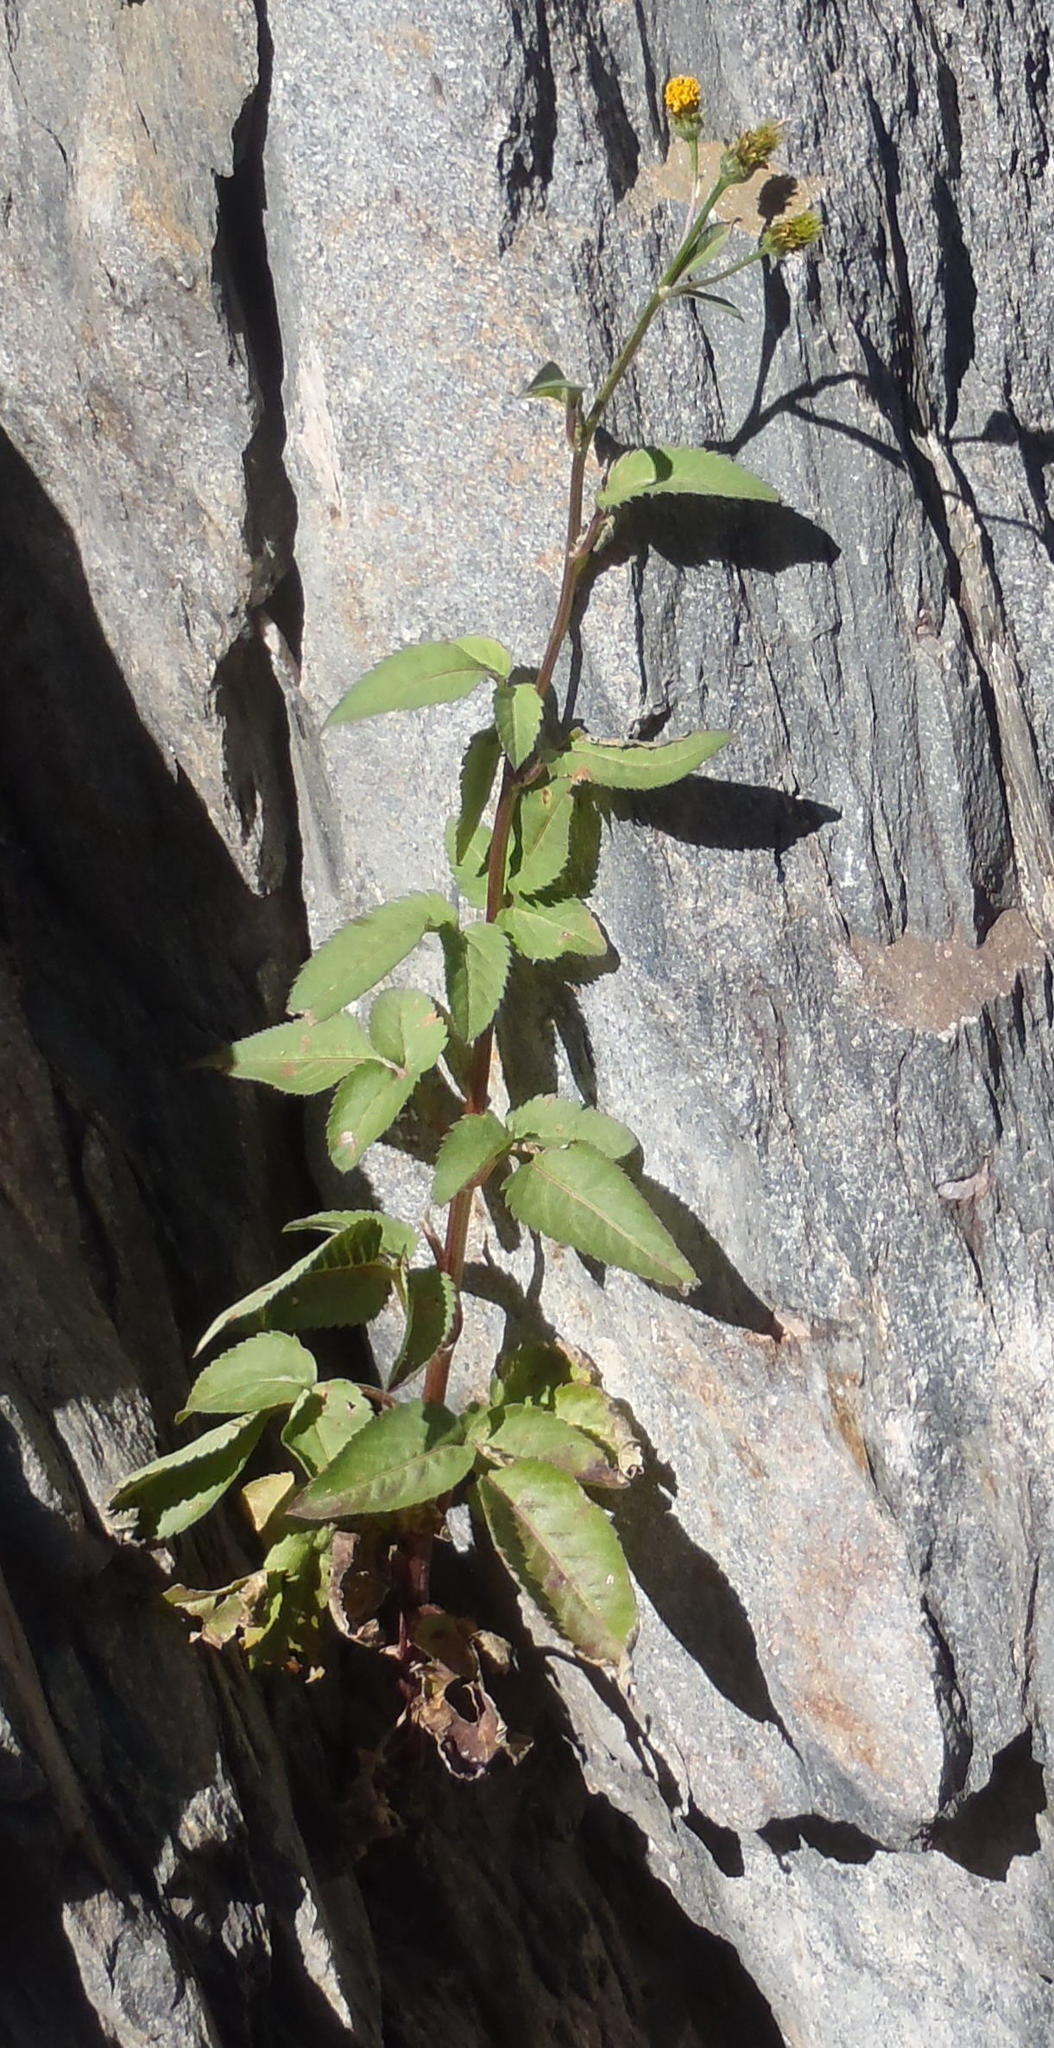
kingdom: Plantae
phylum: Tracheophyta
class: Magnoliopsida
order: Asterales
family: Asteraceae
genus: Bidens
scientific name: Bidens pilosa
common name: Black-jack
